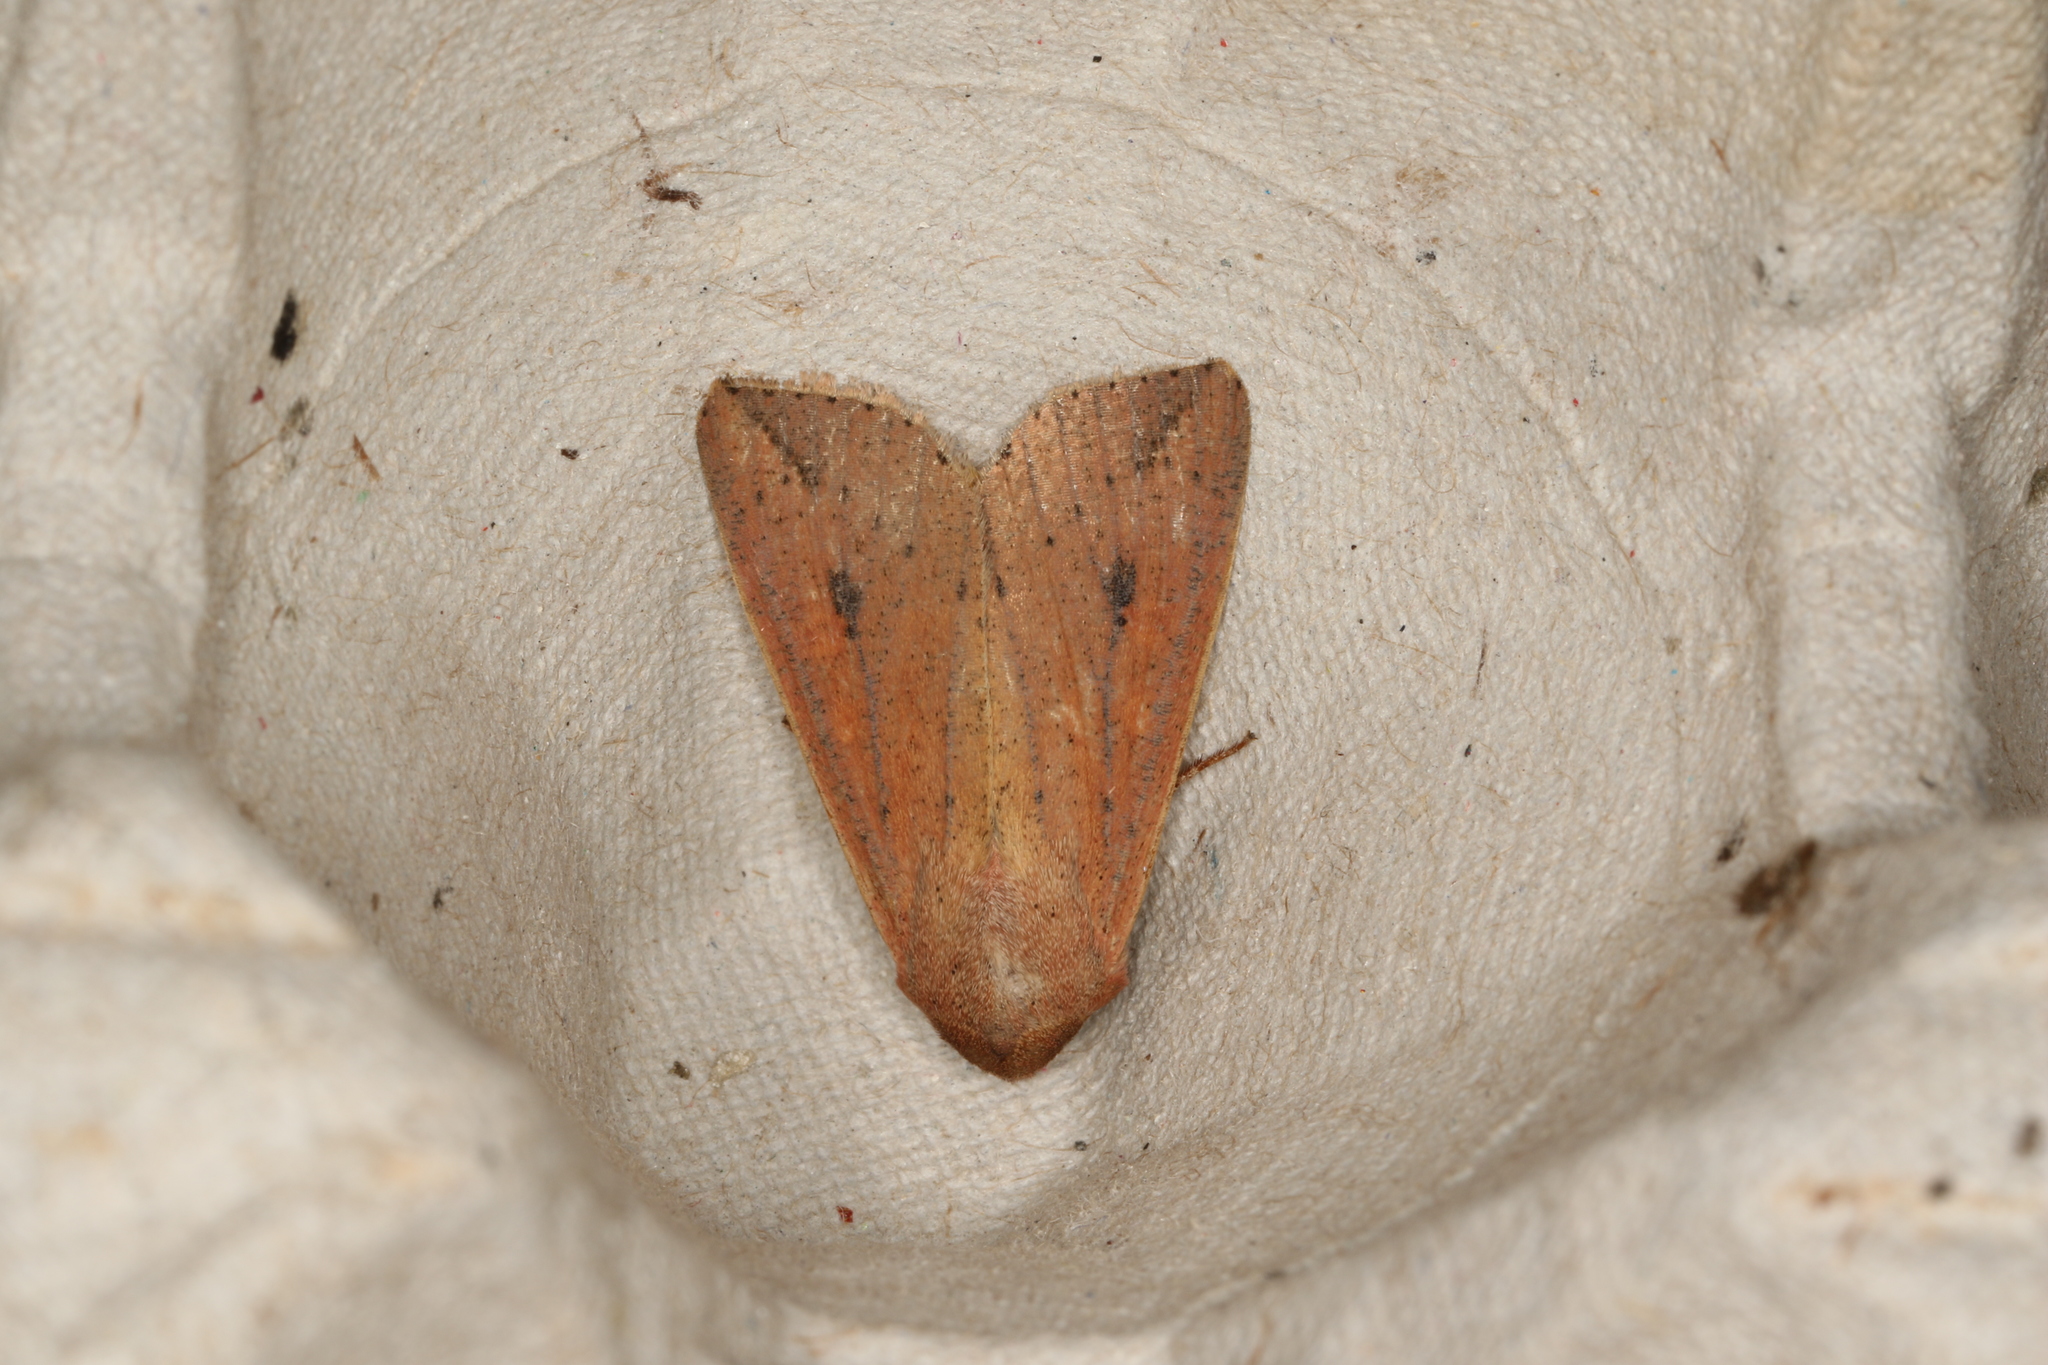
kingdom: Animalia
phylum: Arthropoda
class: Insecta
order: Lepidoptera
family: Noctuidae
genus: Mythimna
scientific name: Mythimna convecta
